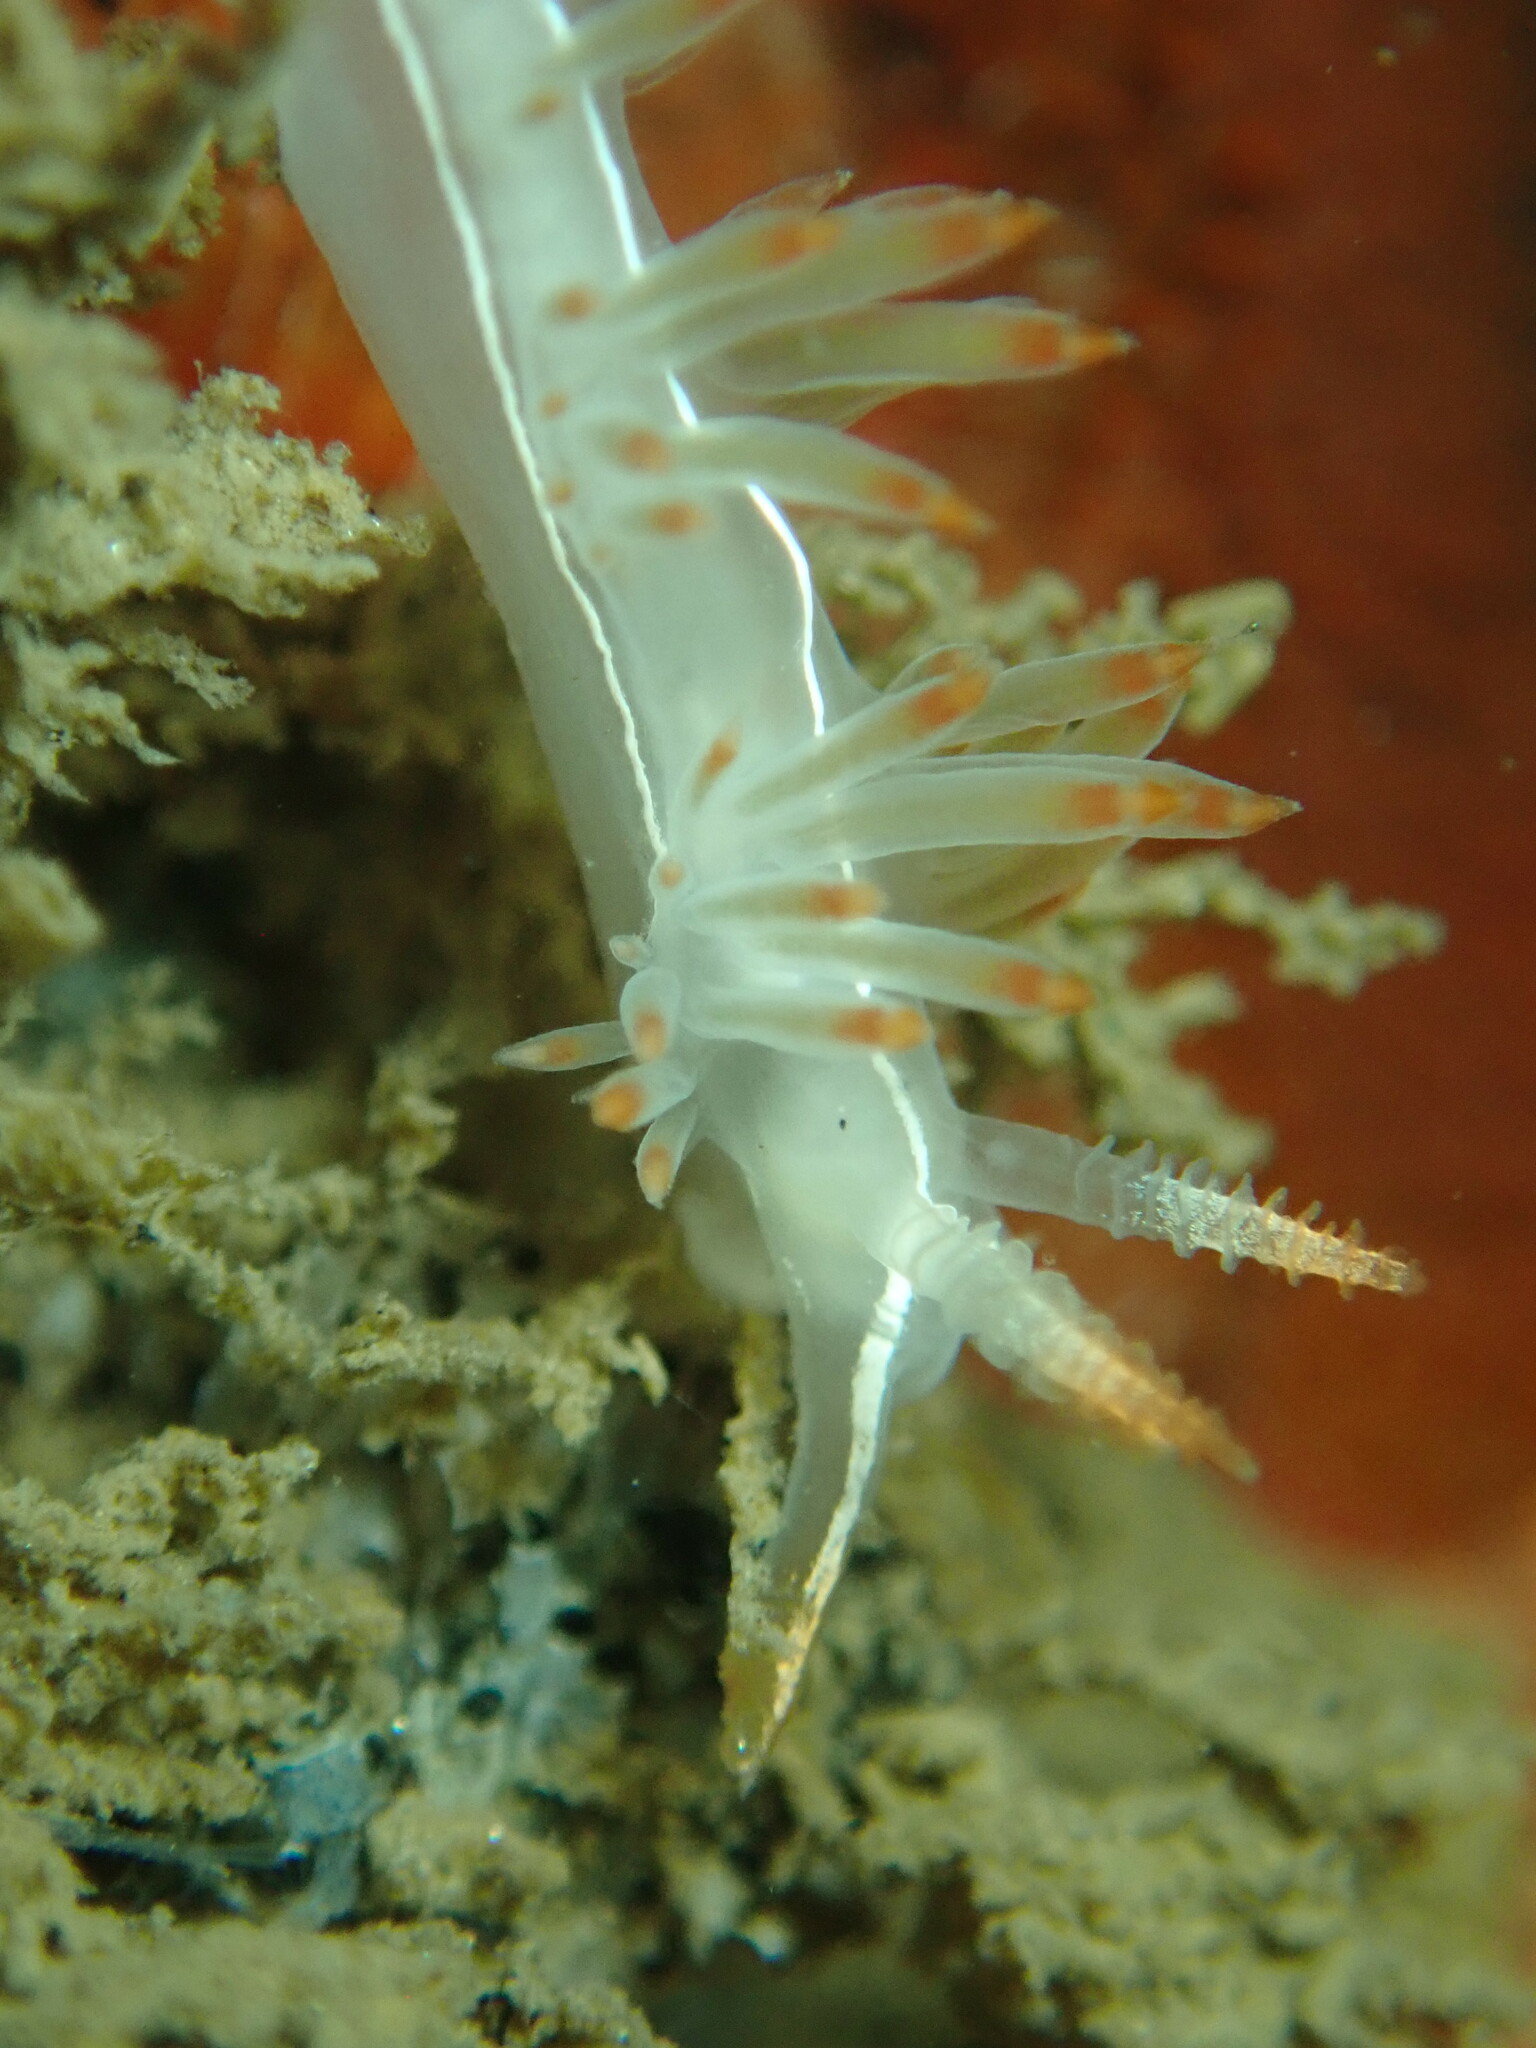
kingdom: Animalia
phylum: Mollusca
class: Gastropoda
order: Nudibranchia
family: Coryphellidae
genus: Coryphella
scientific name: Coryphella trilineata
